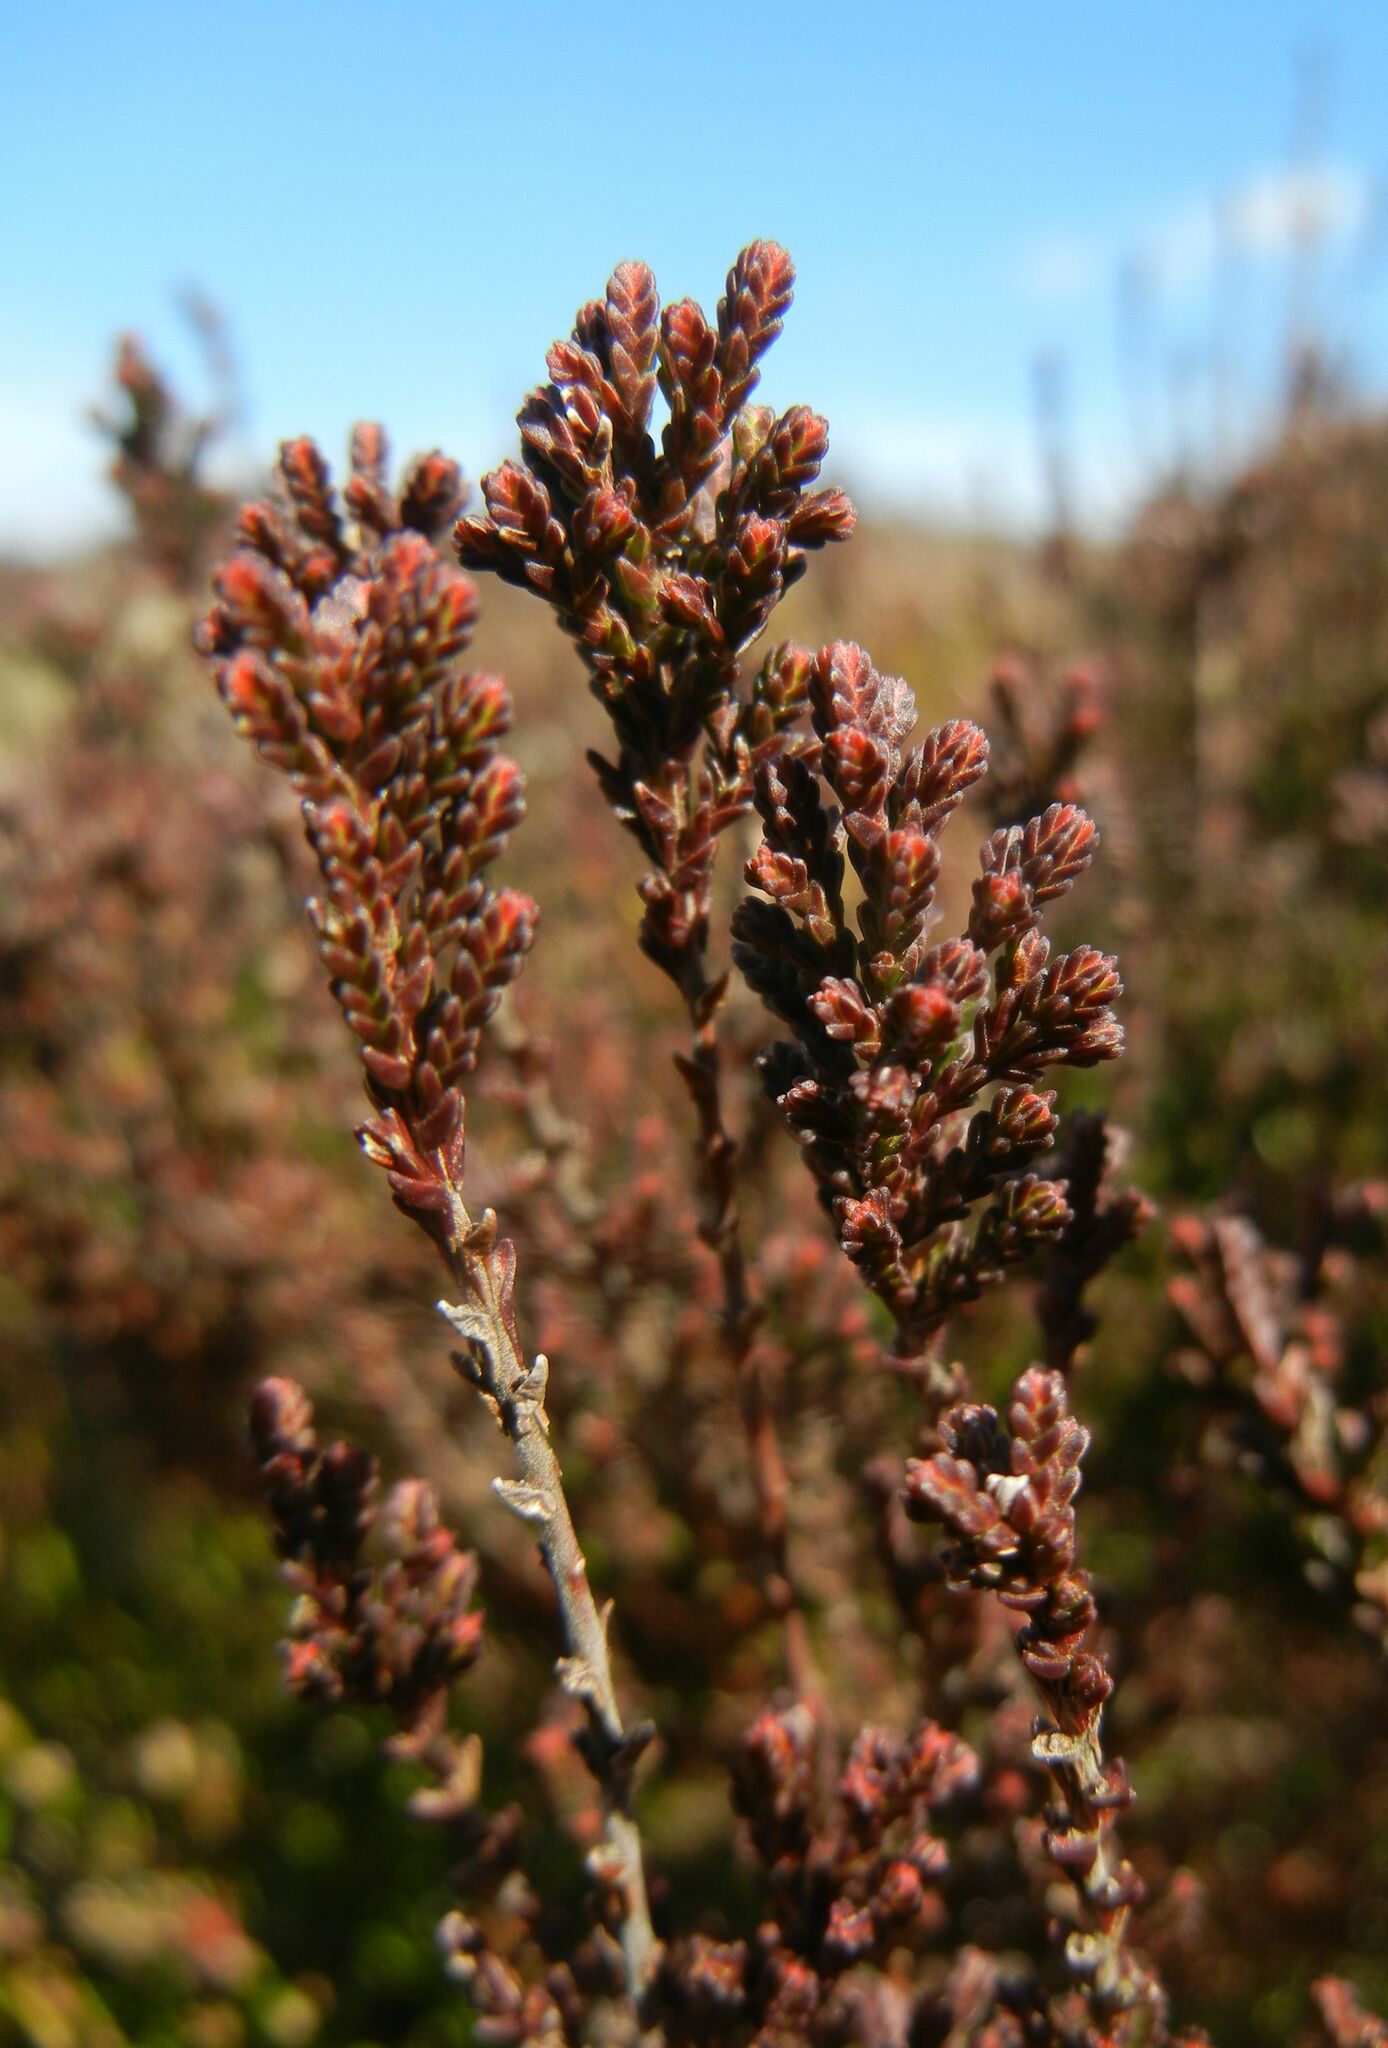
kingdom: Plantae
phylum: Tracheophyta
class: Magnoliopsida
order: Ericales
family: Ericaceae
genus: Calluna
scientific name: Calluna vulgaris
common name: Heather
